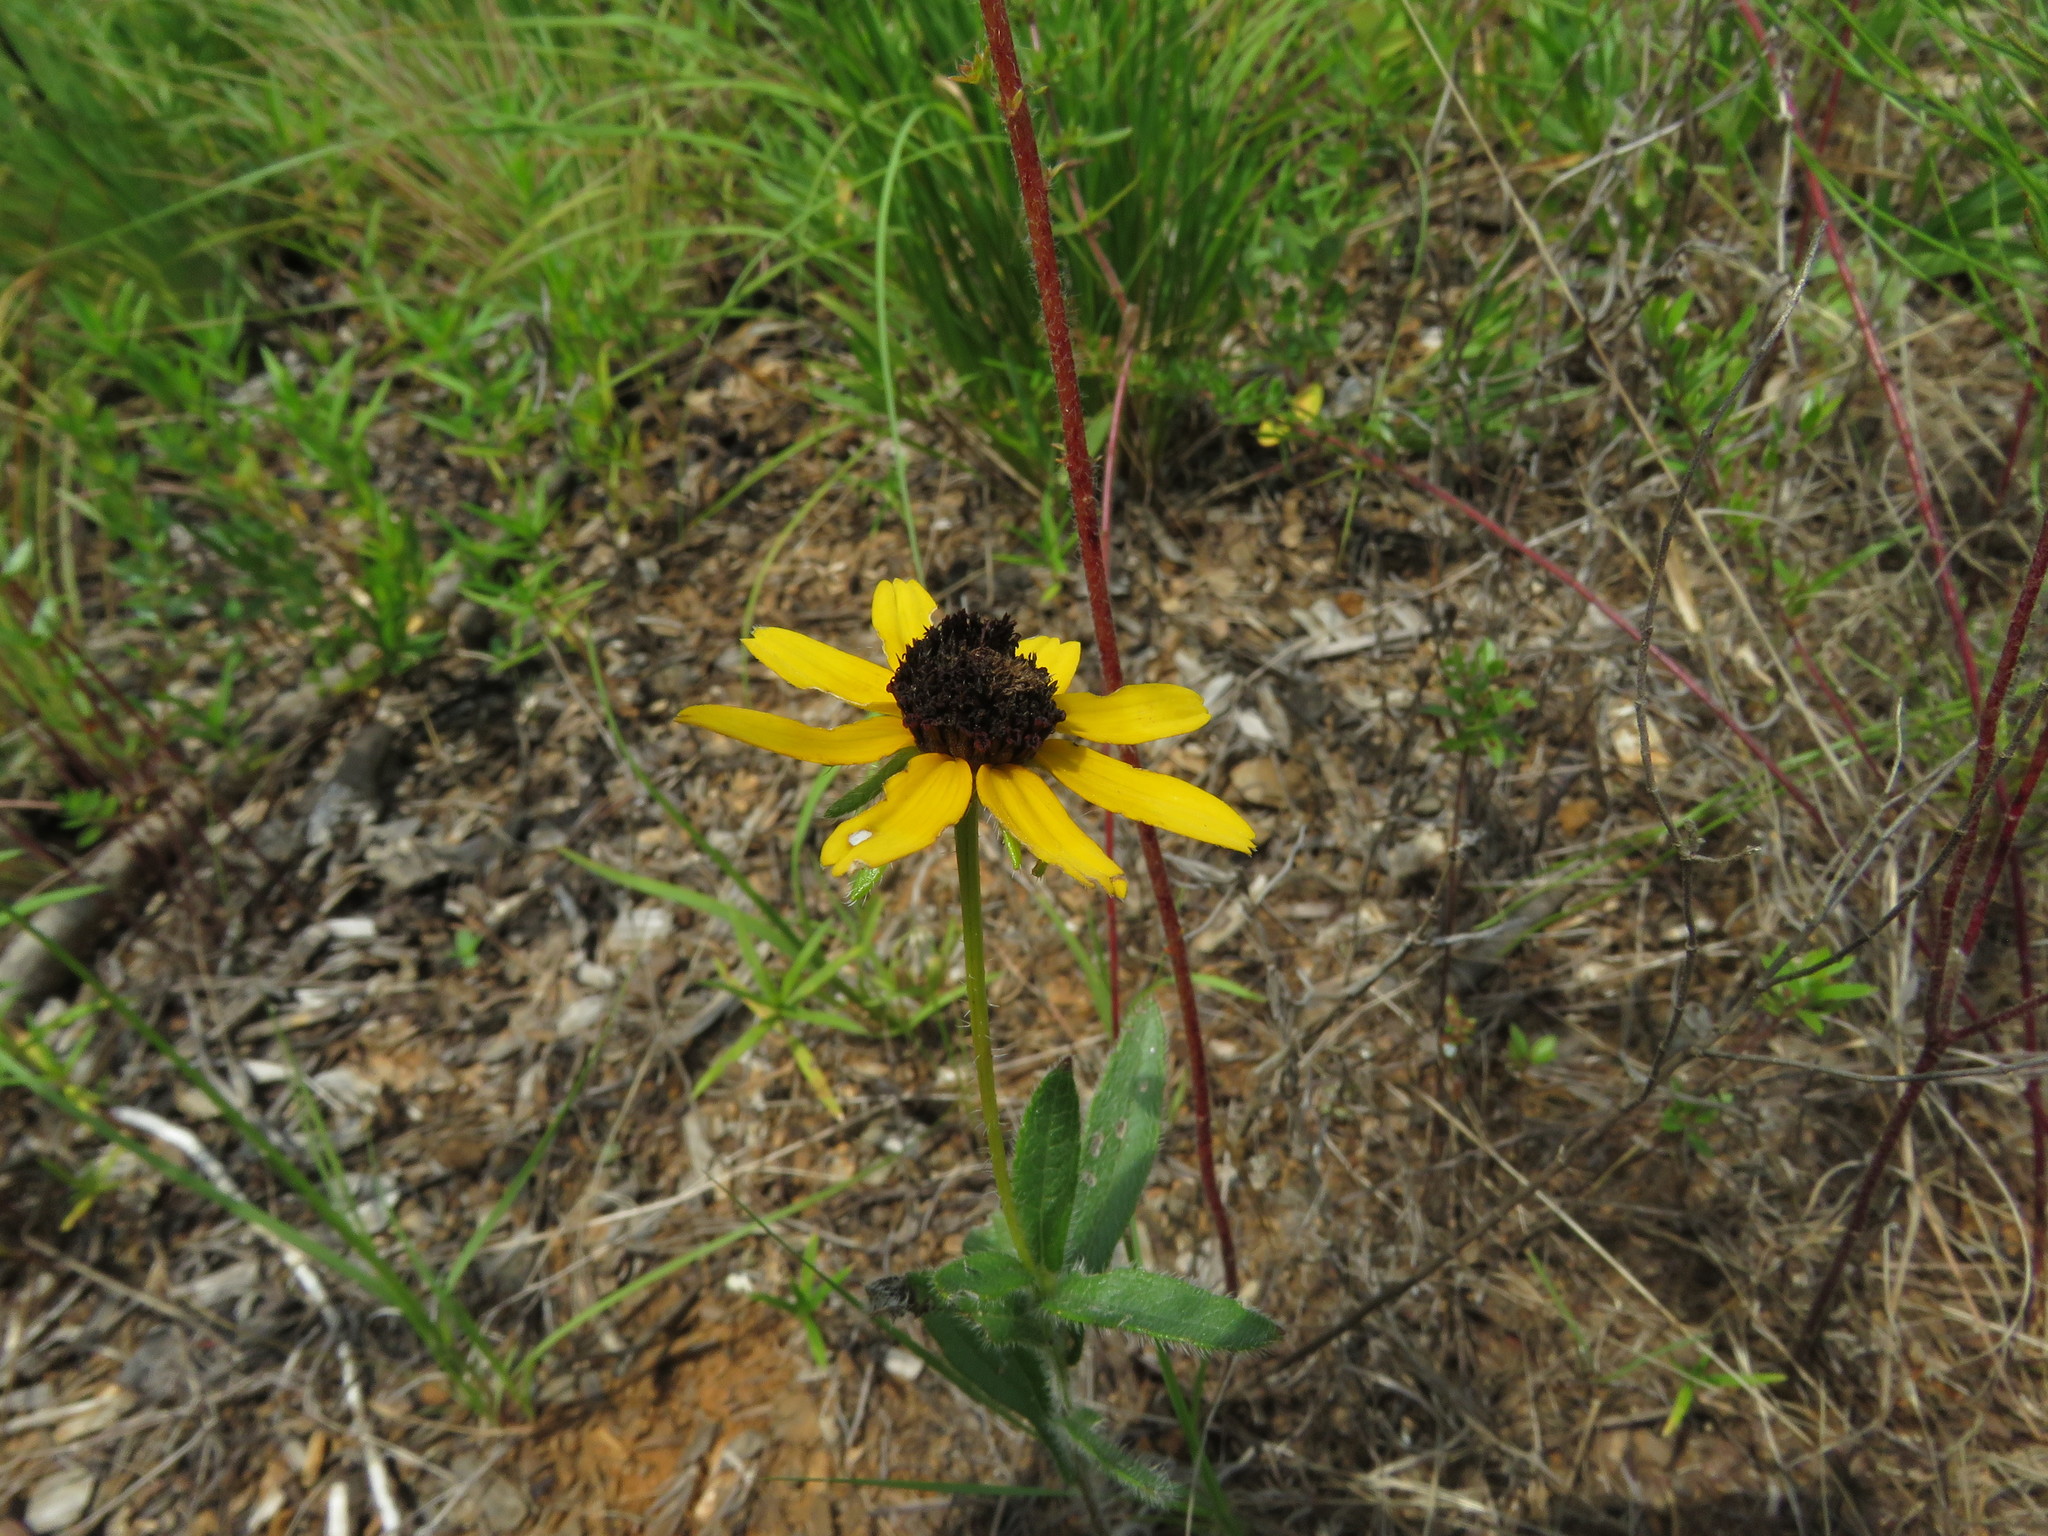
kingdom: Plantae
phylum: Tracheophyta
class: Magnoliopsida
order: Asterales
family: Asteraceae
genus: Rudbeckia
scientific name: Rudbeckia hirta
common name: Black-eyed-susan
